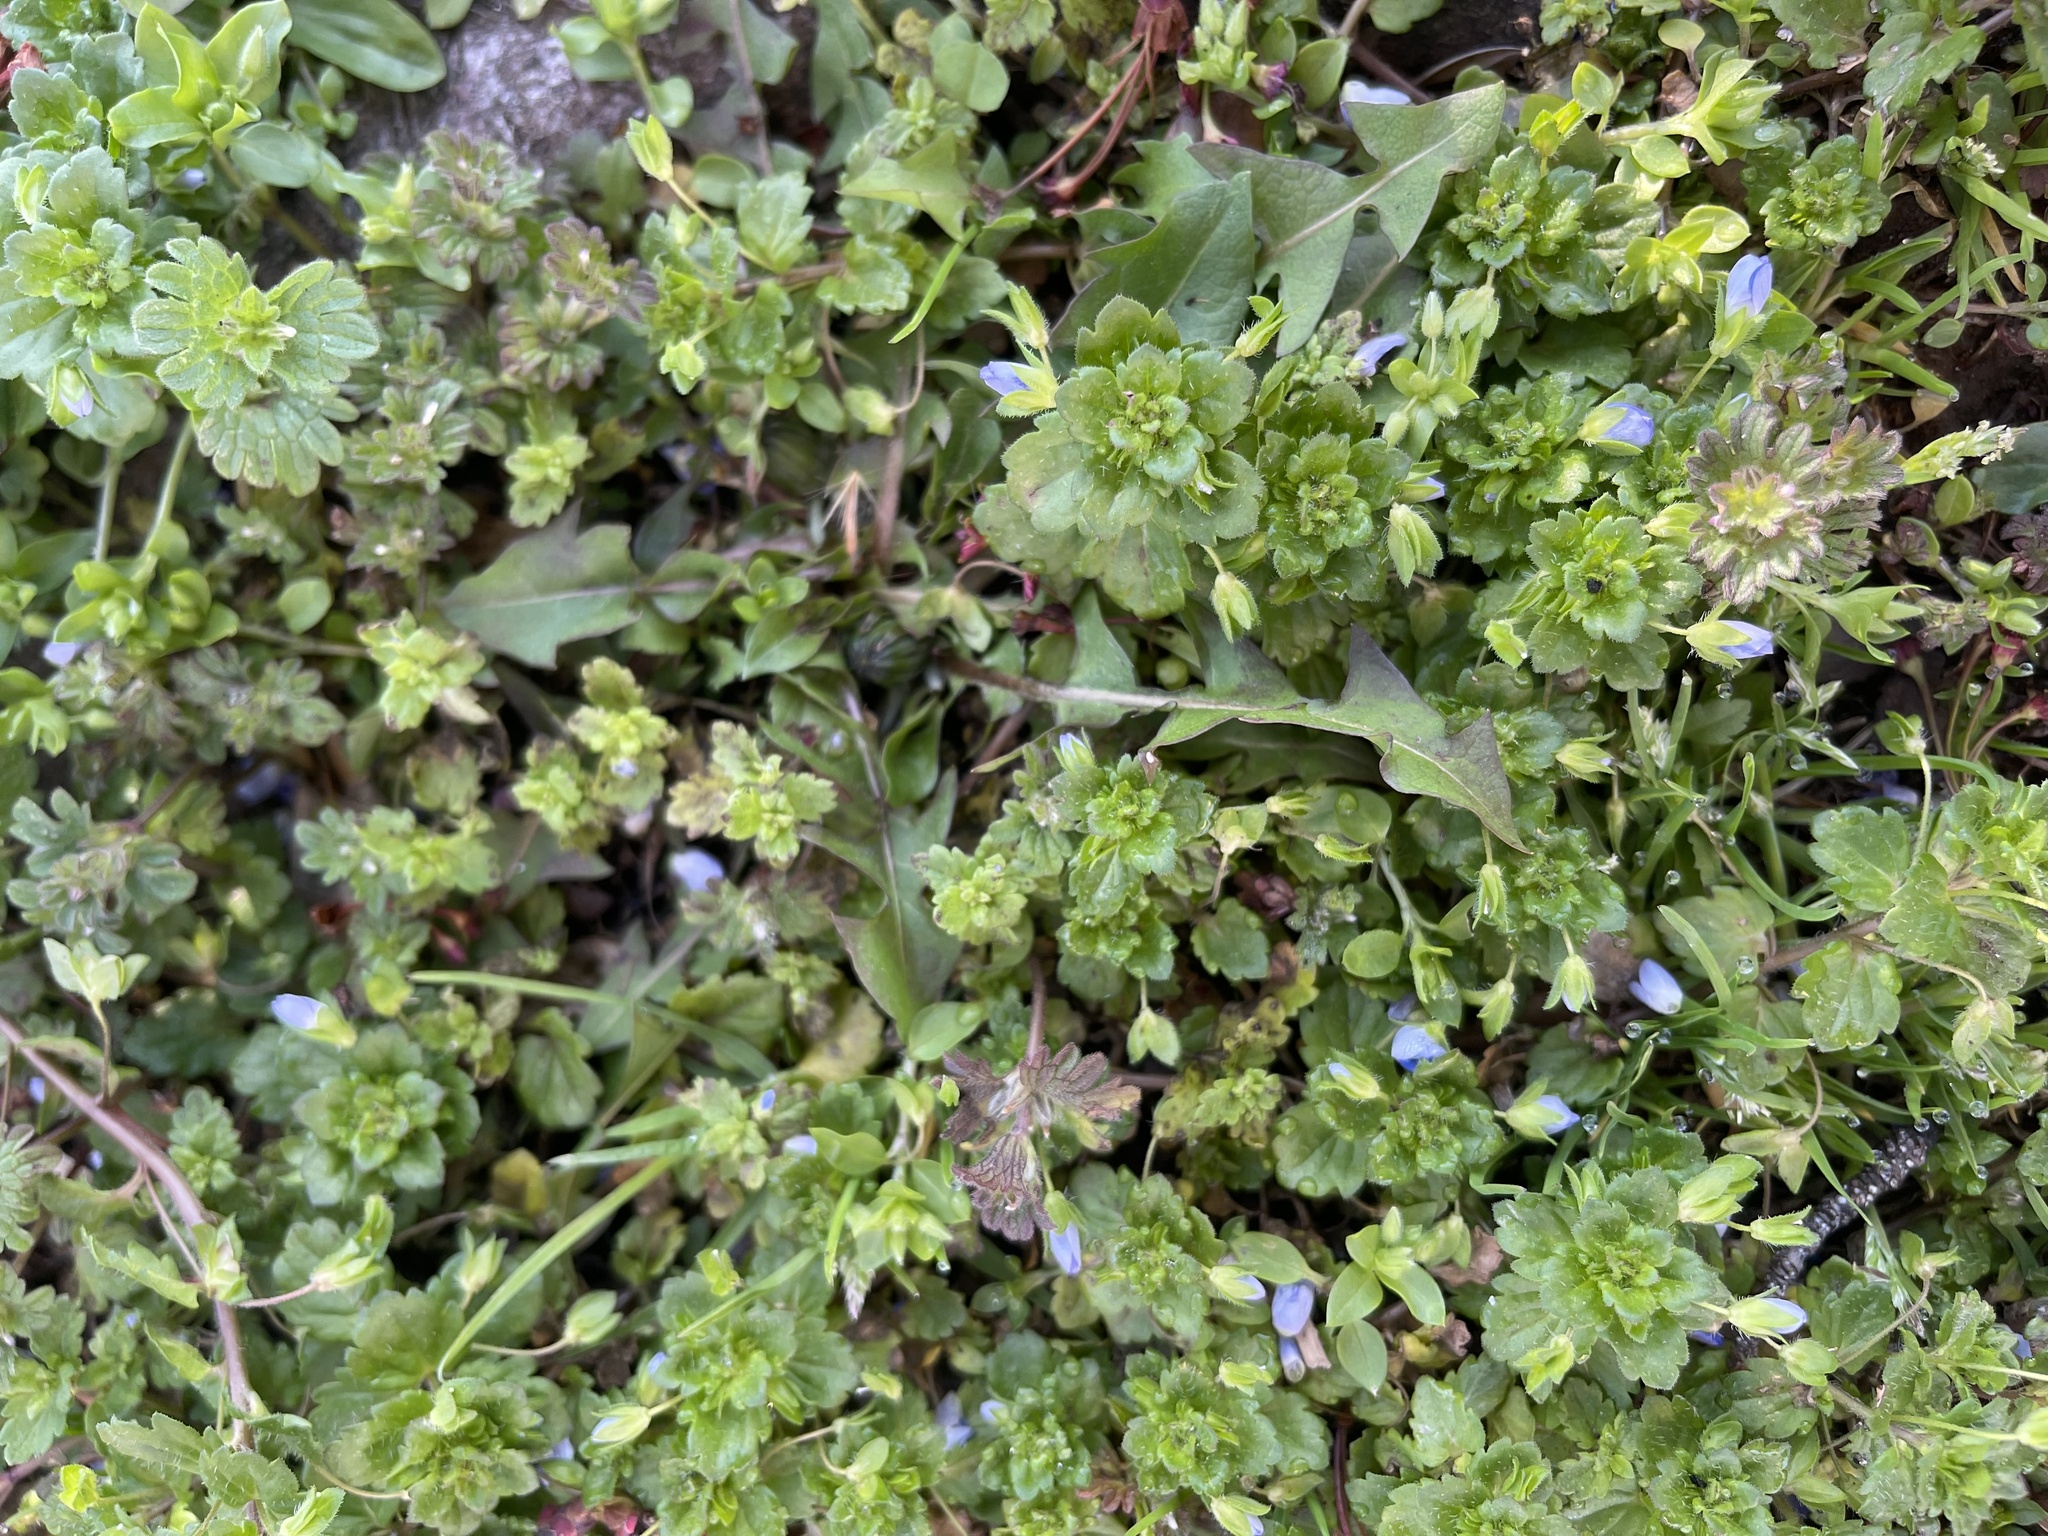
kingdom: Plantae
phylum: Tracheophyta
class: Magnoliopsida
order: Lamiales
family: Plantaginaceae
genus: Veronica
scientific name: Veronica persica
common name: Common field-speedwell
